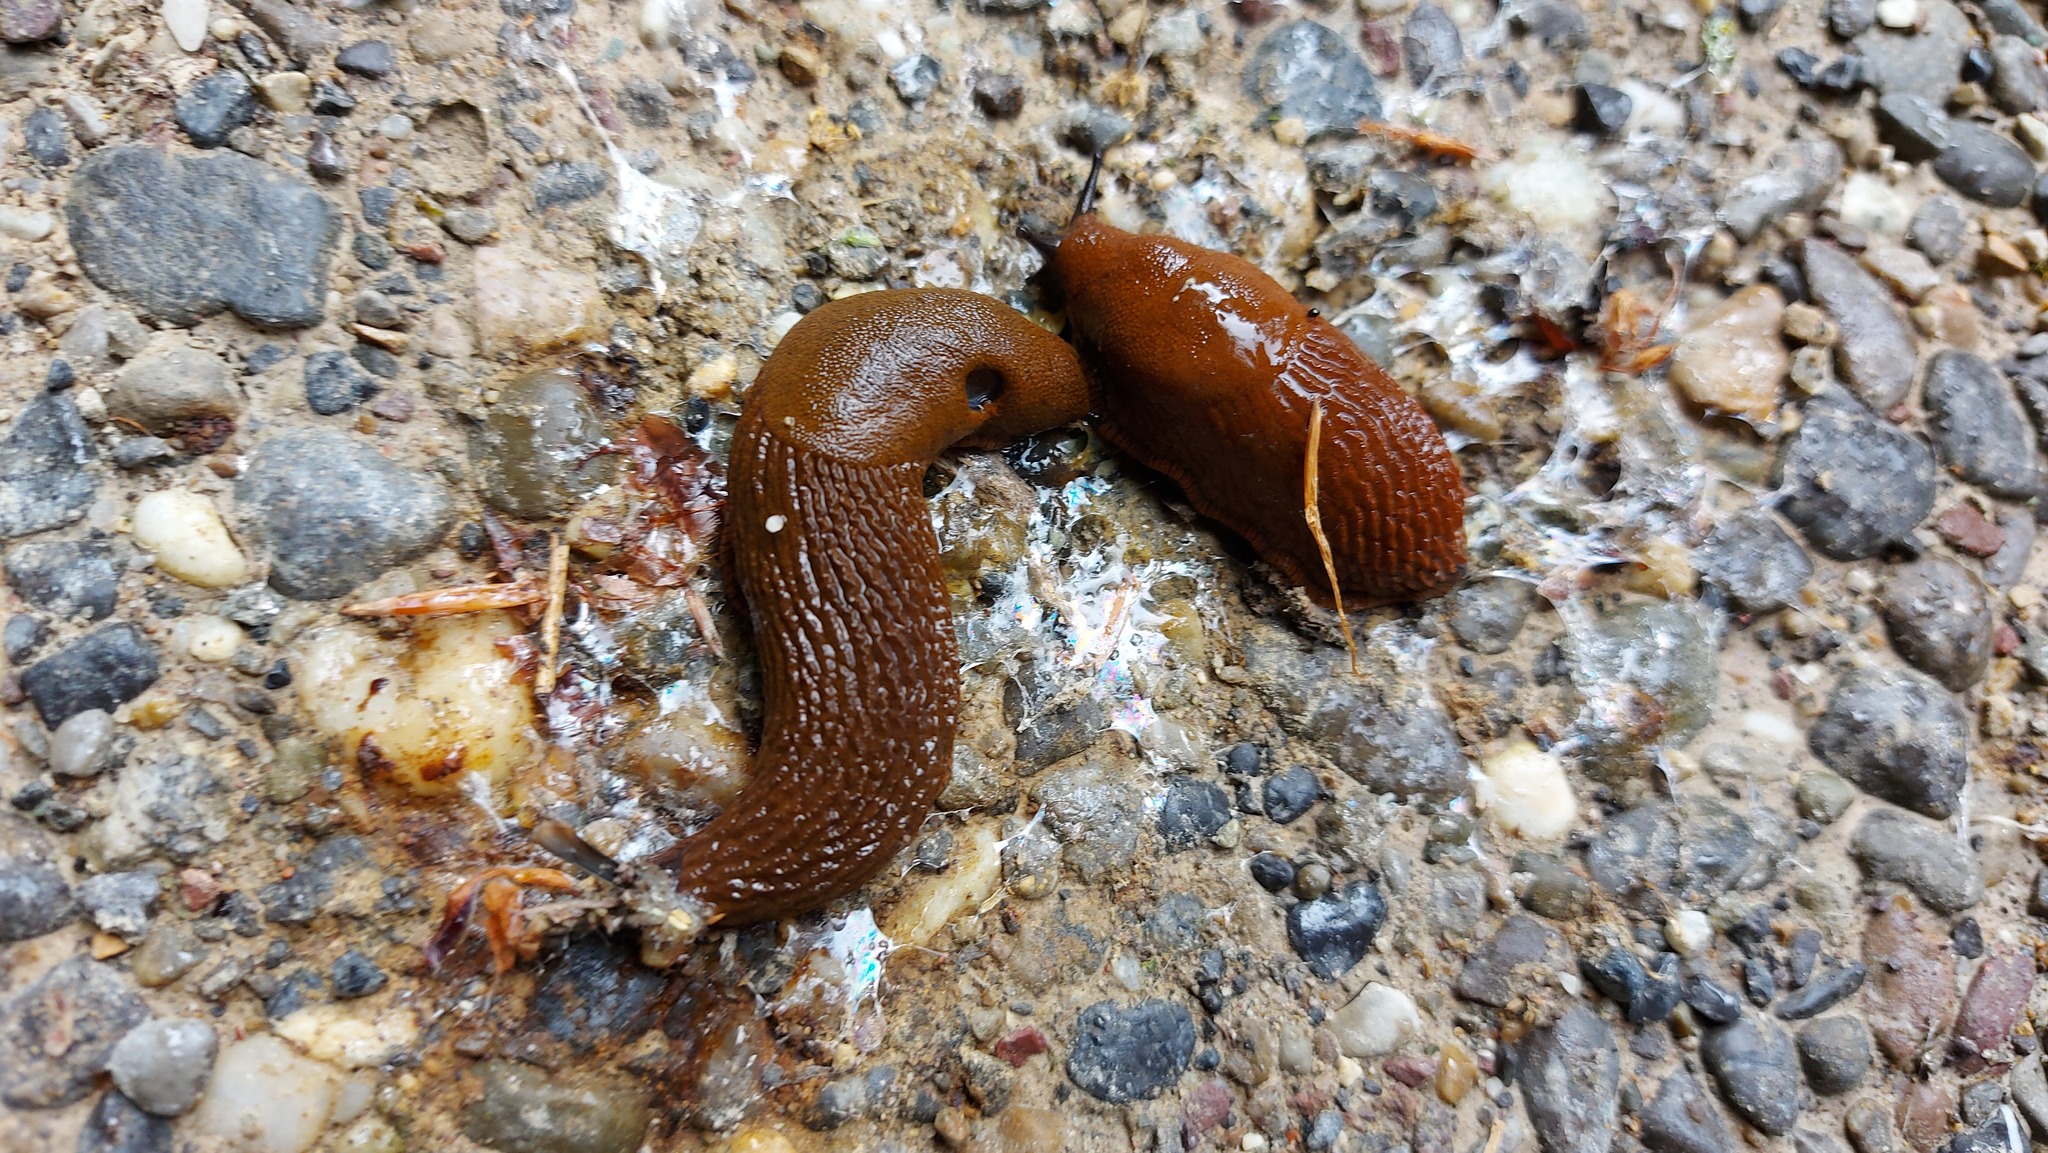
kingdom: Animalia
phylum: Mollusca
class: Gastropoda
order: Stylommatophora
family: Arionidae
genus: Arion
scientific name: Arion
